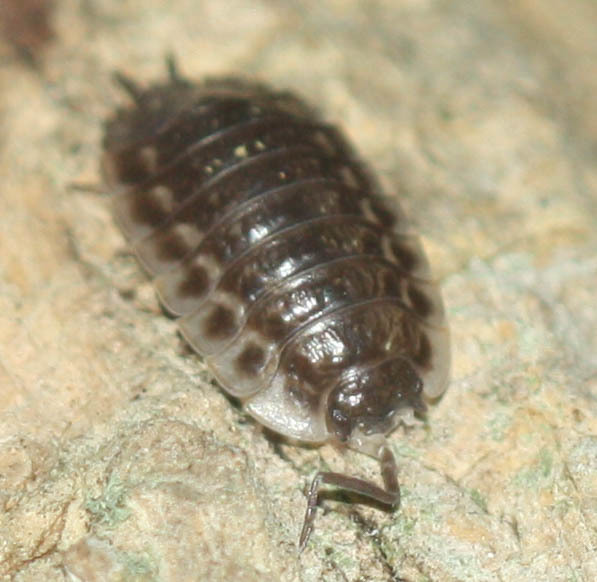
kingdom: Animalia
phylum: Arthropoda
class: Malacostraca
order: Isopoda
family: Oniscidae
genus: Oniscus
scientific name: Oniscus asellus
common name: Common shiny woodlouse
